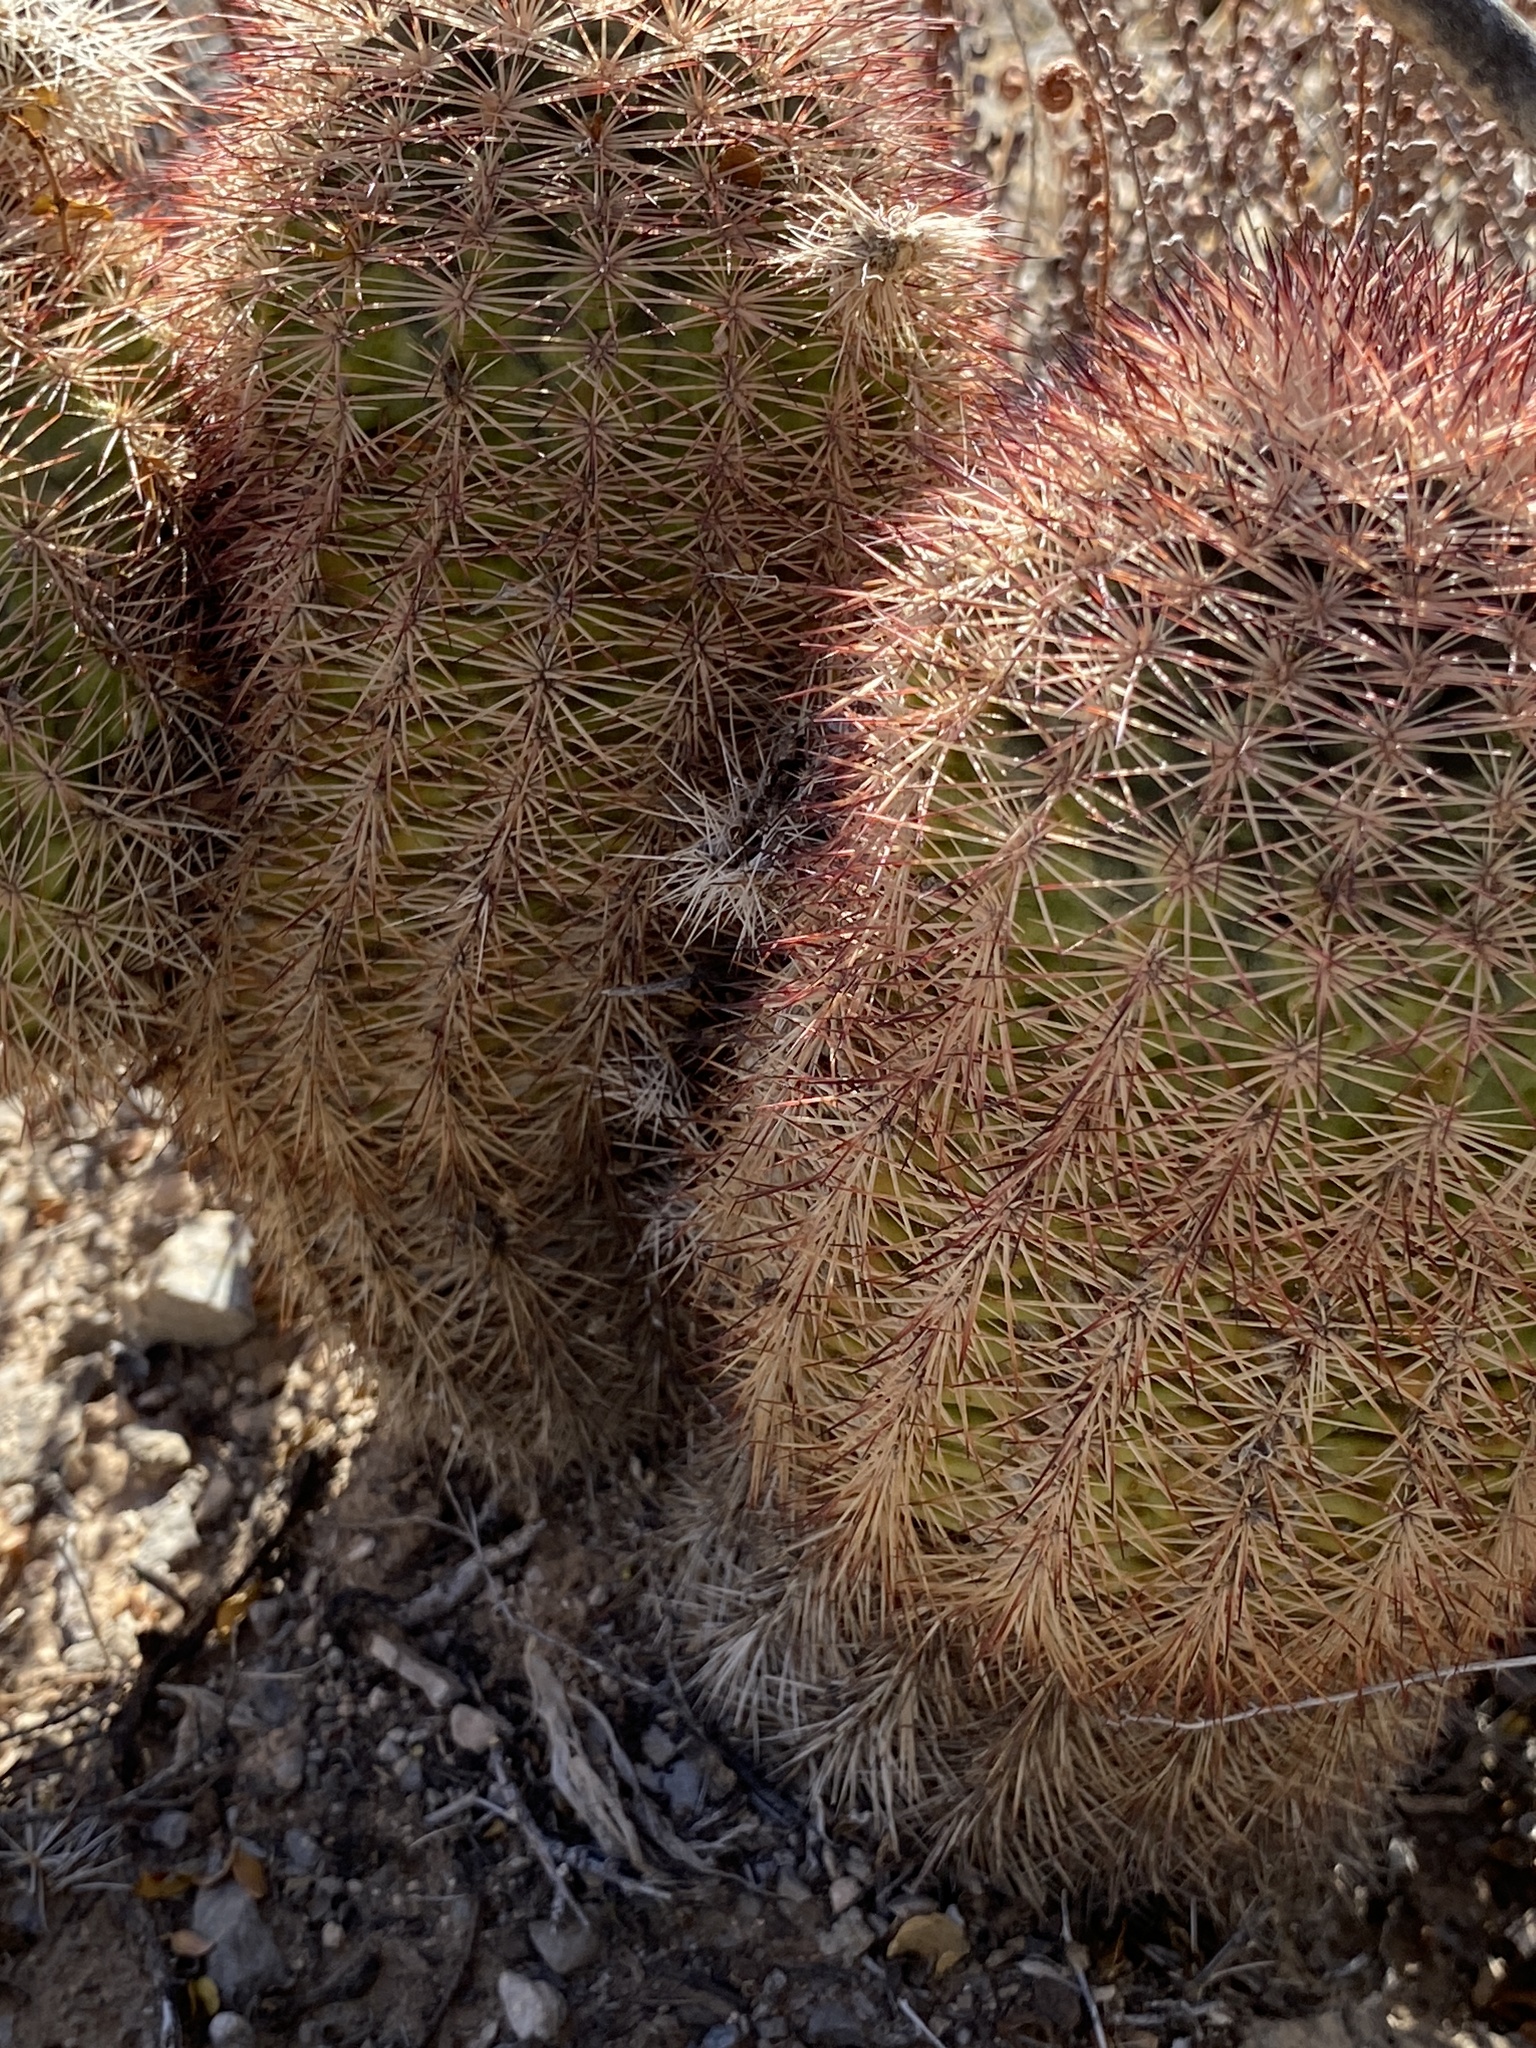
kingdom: Plantae
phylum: Tracheophyta
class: Magnoliopsida
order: Caryophyllales
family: Cactaceae
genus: Echinocereus
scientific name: Echinocereus dasyacanthus
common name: Spiny hedgehog cactus
